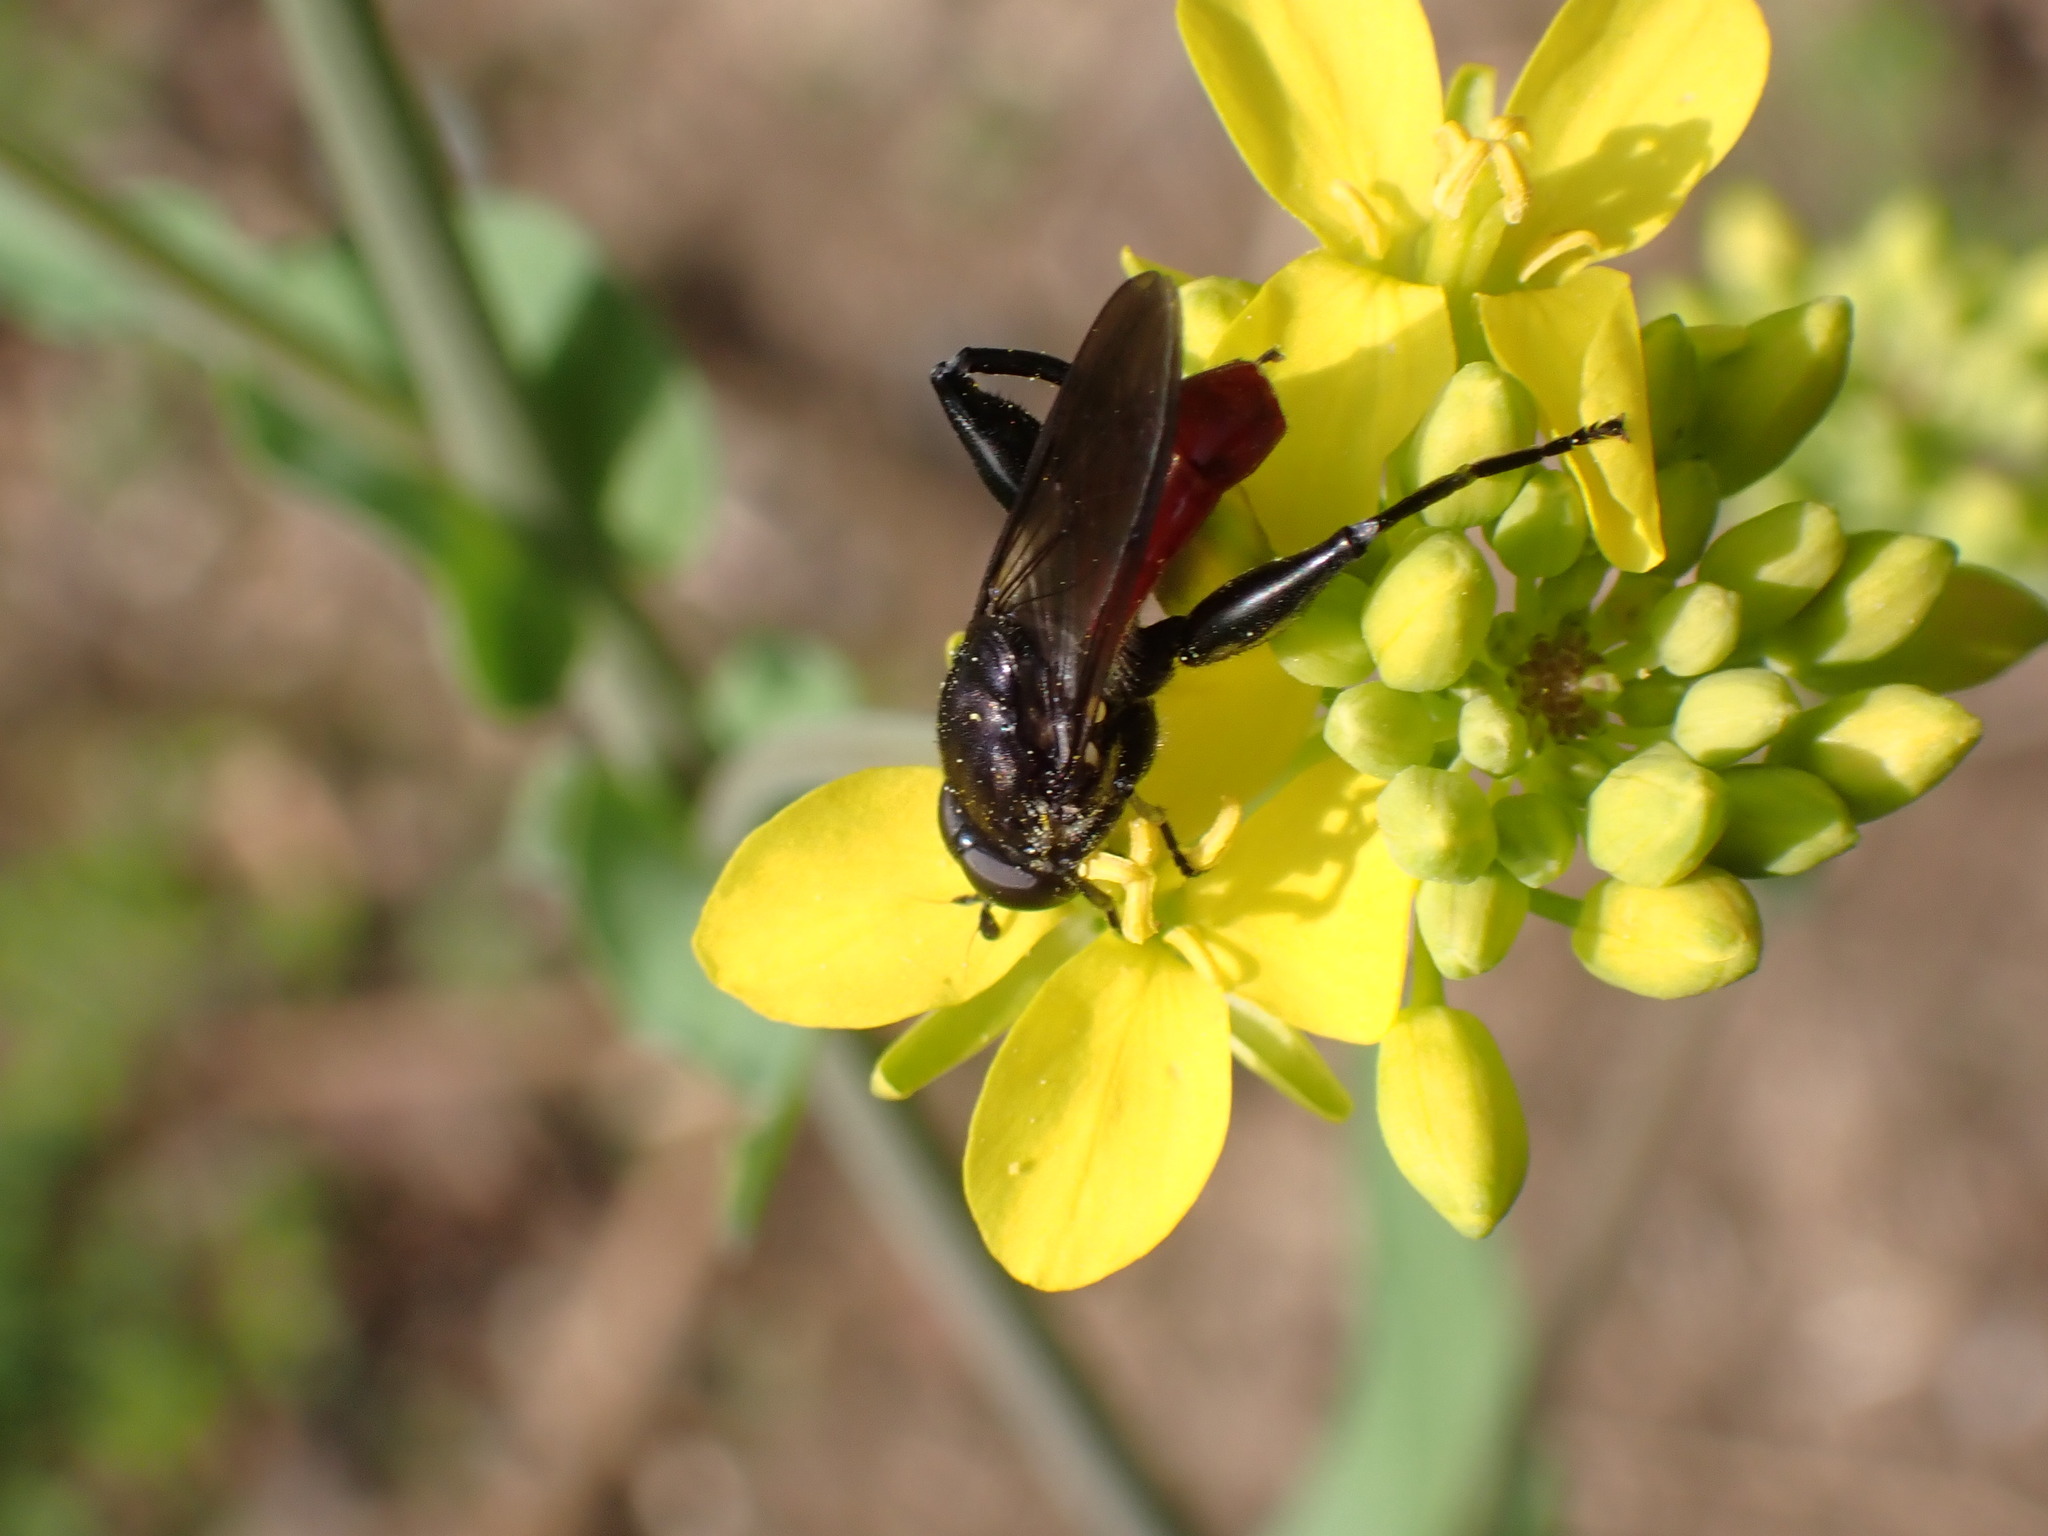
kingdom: Animalia
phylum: Arthropoda
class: Insecta
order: Diptera
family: Syrphidae
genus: Chalcosyrphus
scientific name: Chalcosyrphus piger
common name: Short-haired leafwalker
